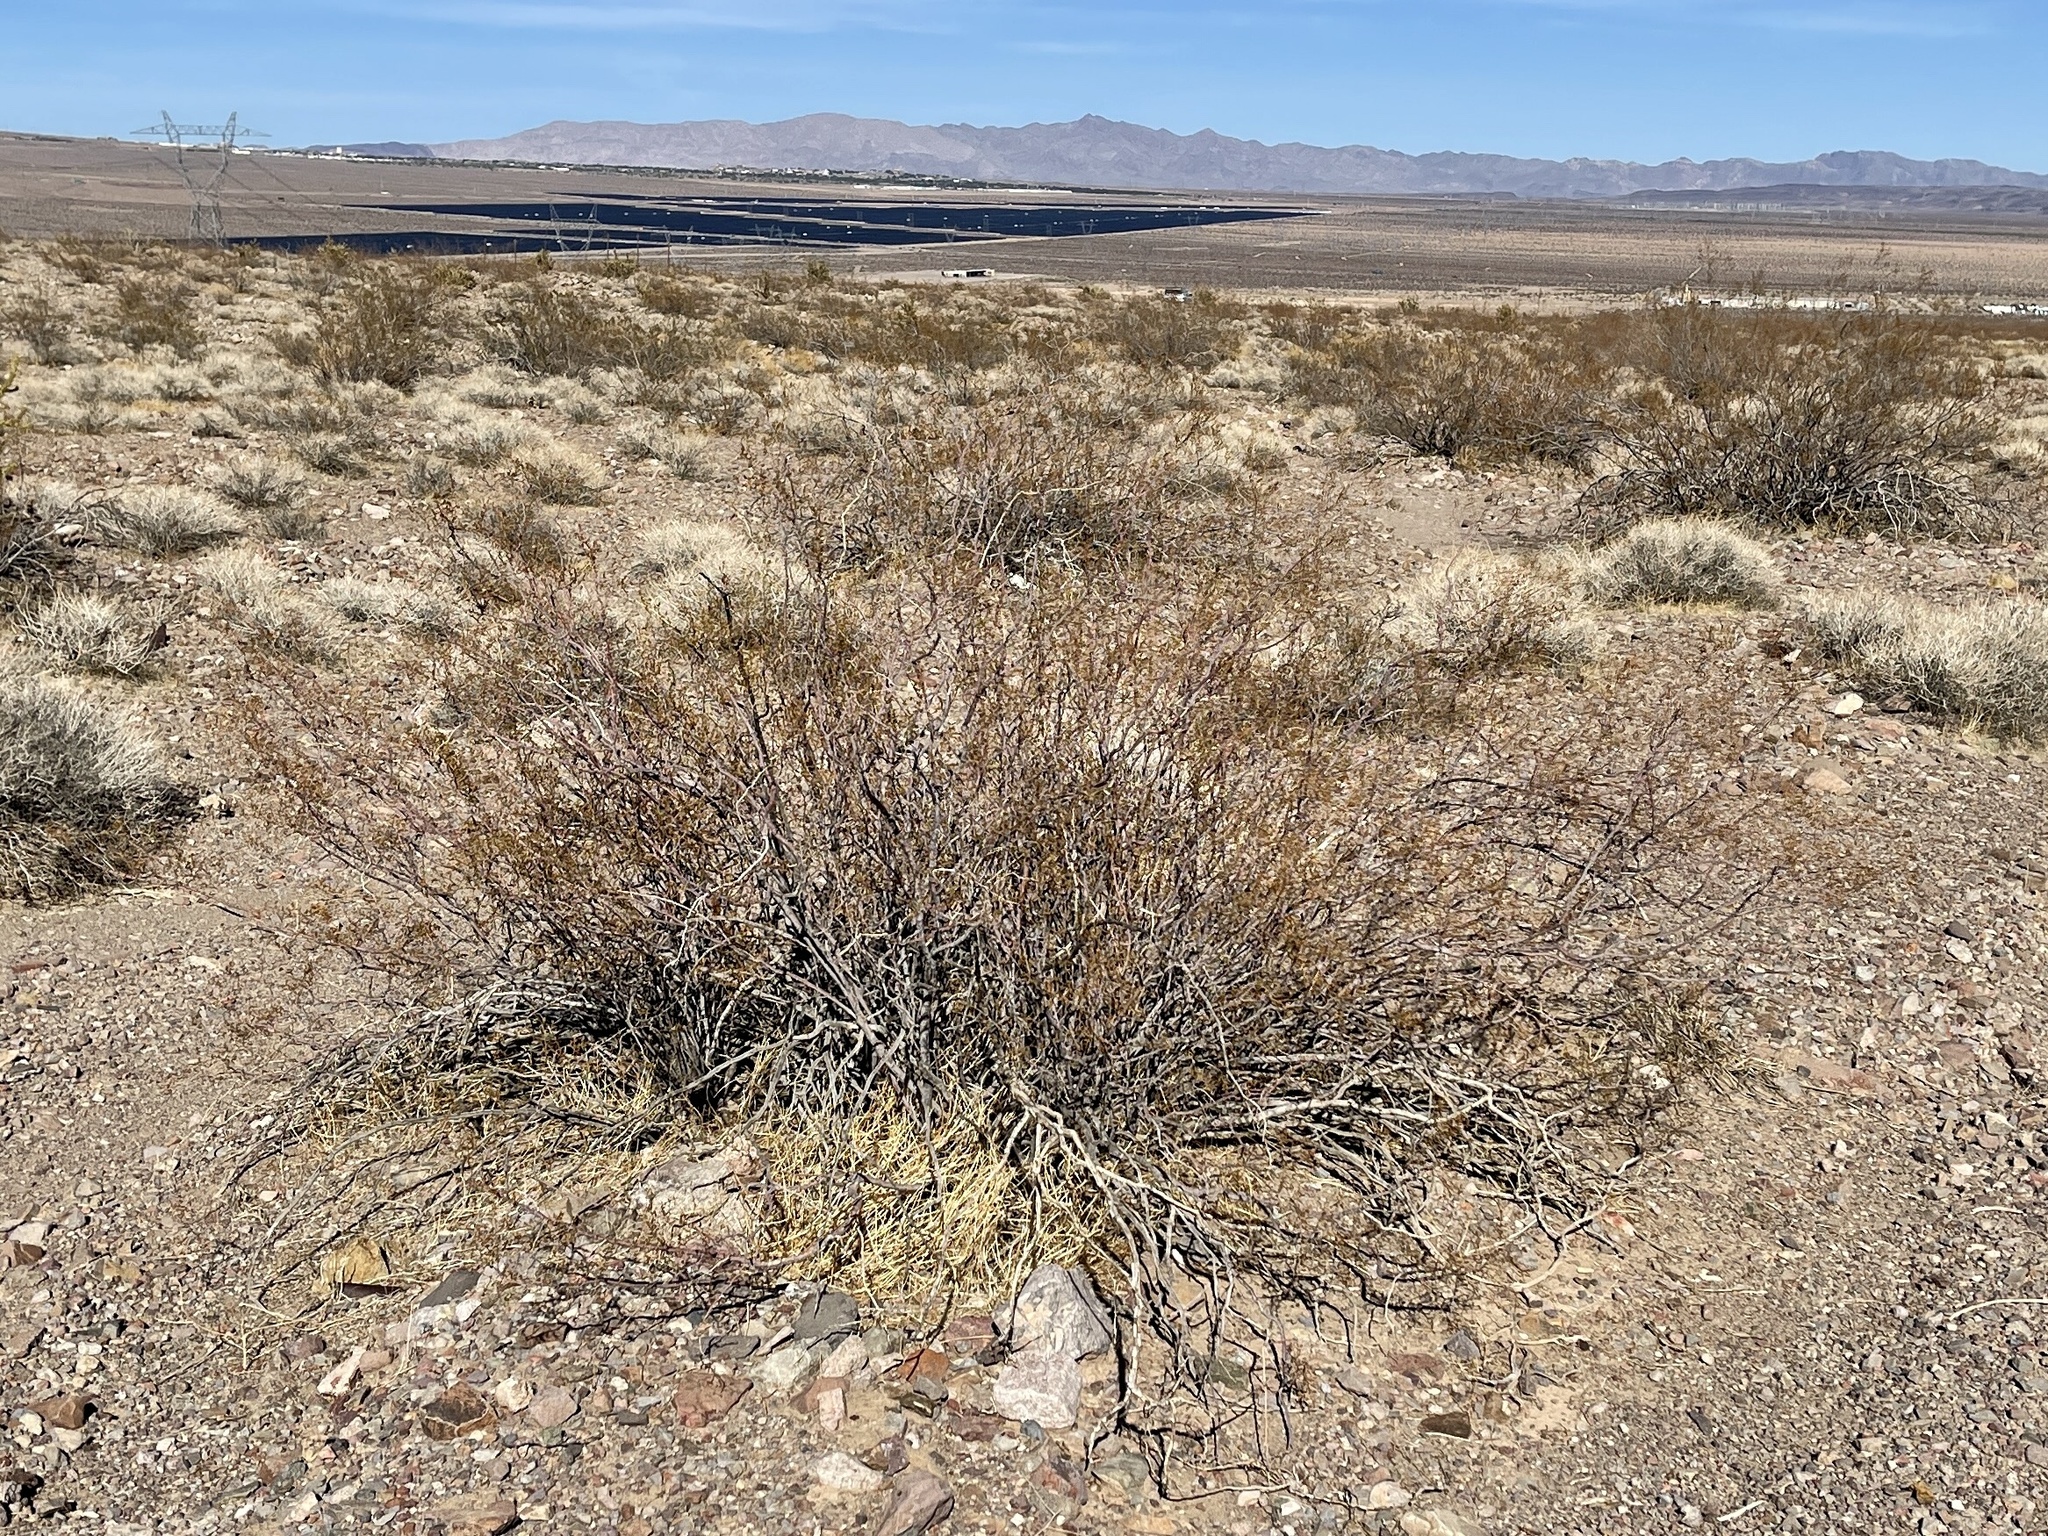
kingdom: Plantae
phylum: Tracheophyta
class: Magnoliopsida
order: Zygophyllales
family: Zygophyllaceae
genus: Larrea
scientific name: Larrea tridentata
